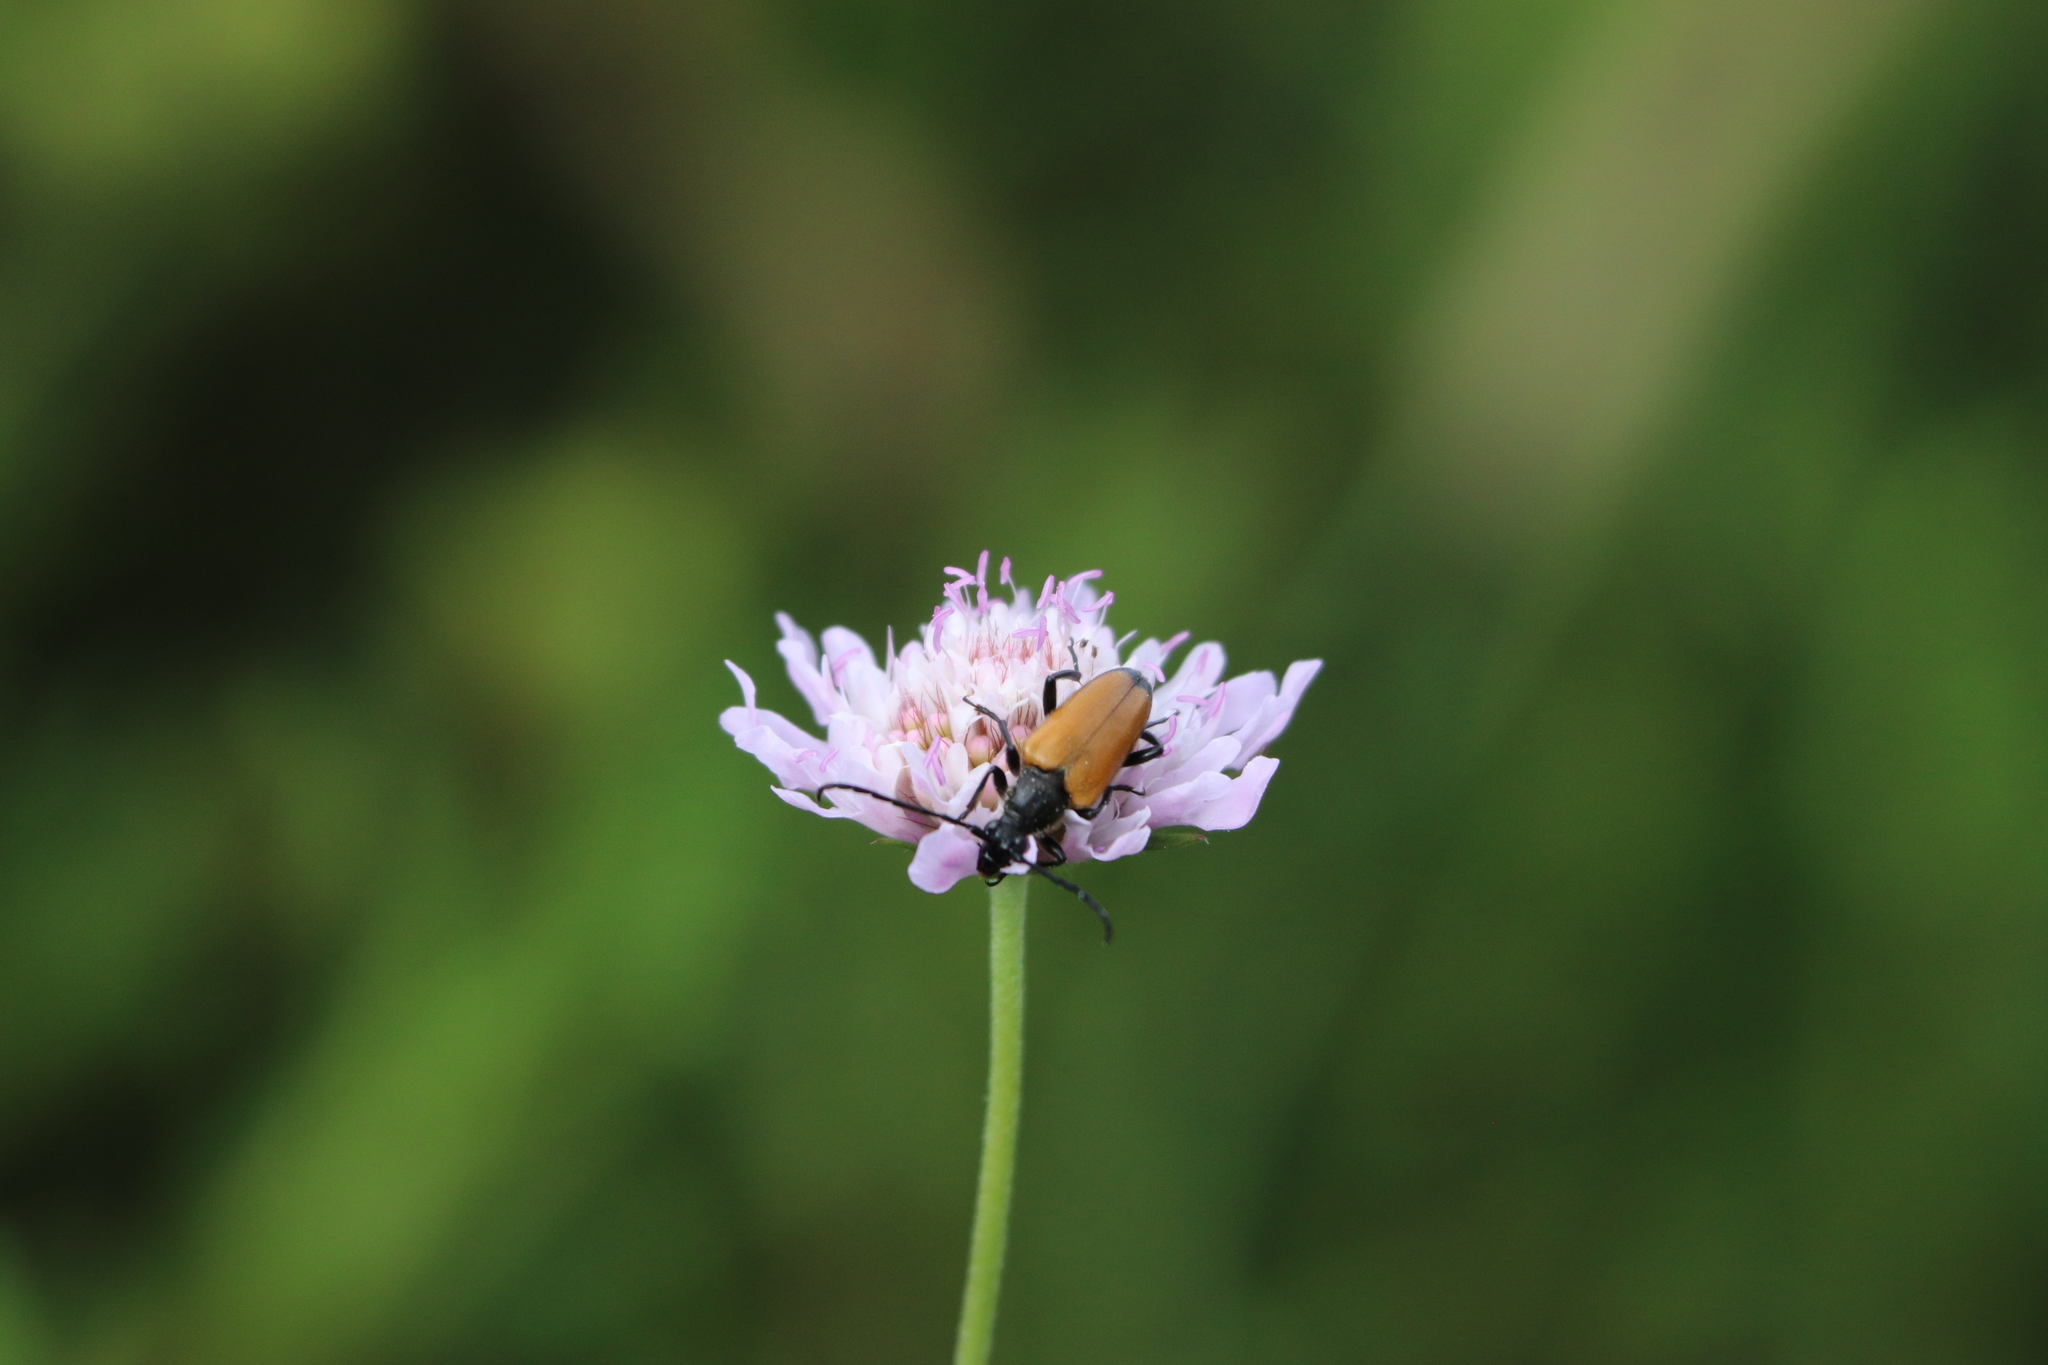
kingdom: Animalia
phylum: Arthropoda
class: Insecta
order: Coleoptera
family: Cerambycidae
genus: Paracorymbia
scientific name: Paracorymbia fulva
